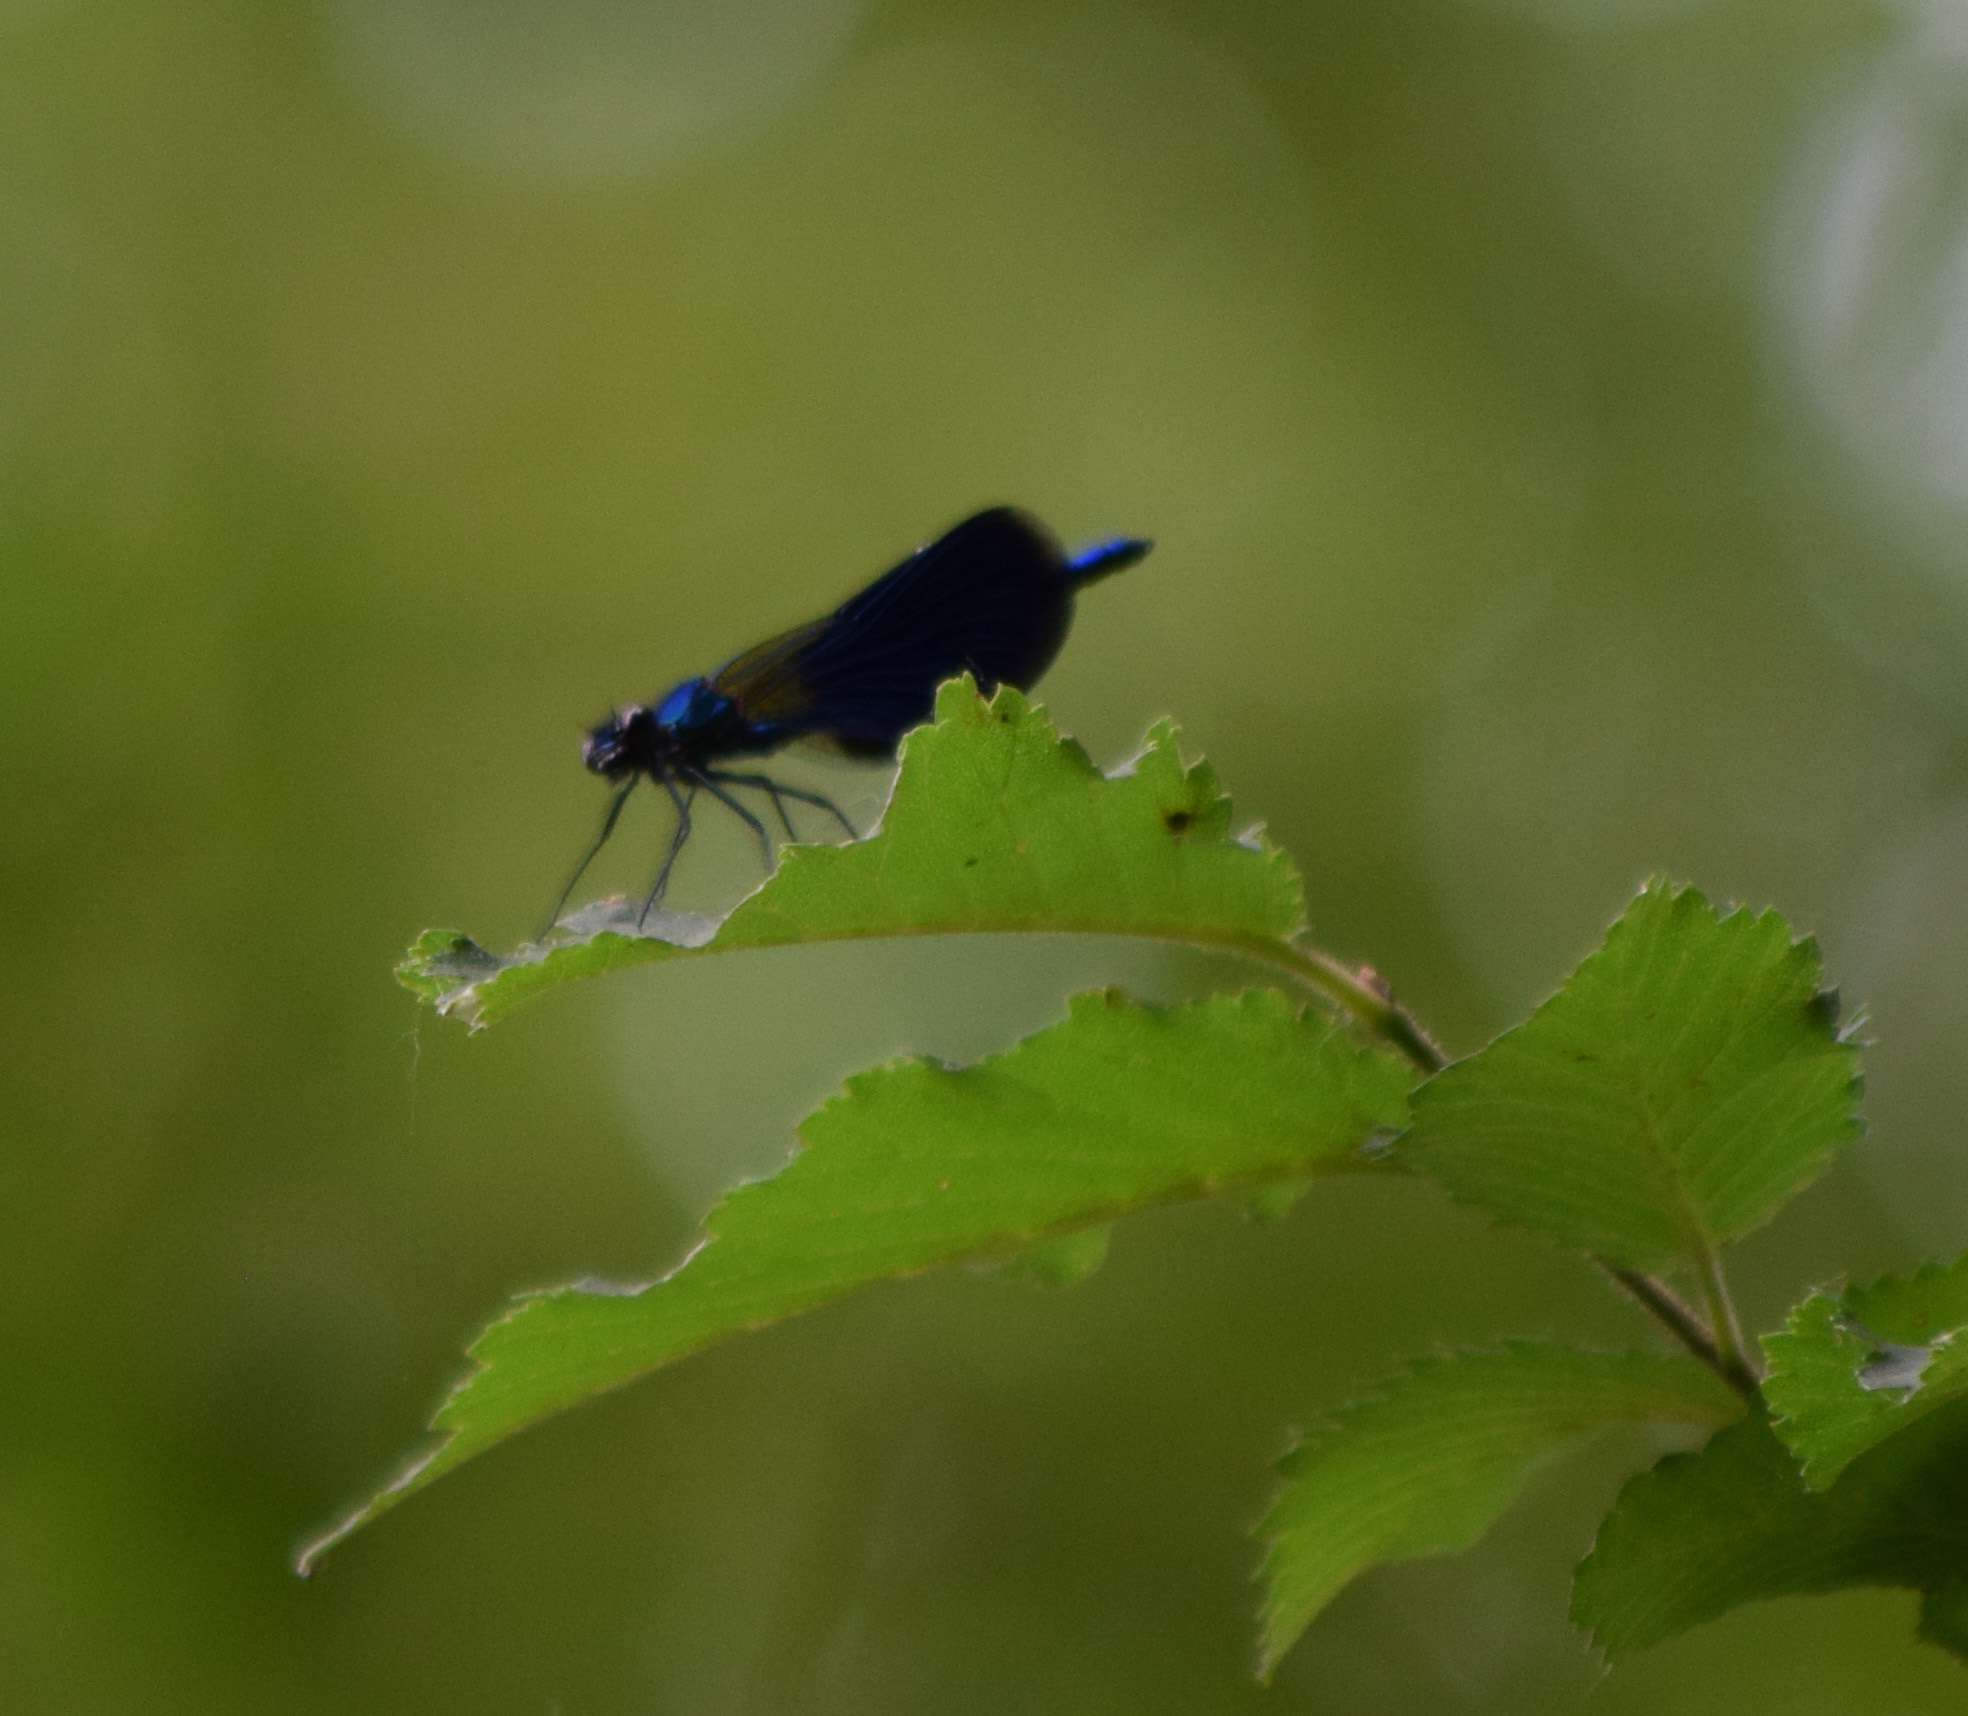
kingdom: Animalia
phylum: Arthropoda
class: Insecta
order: Odonata
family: Calopterygidae
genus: Calopteryx
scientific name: Calopteryx splendens
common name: Banded demoiselle
